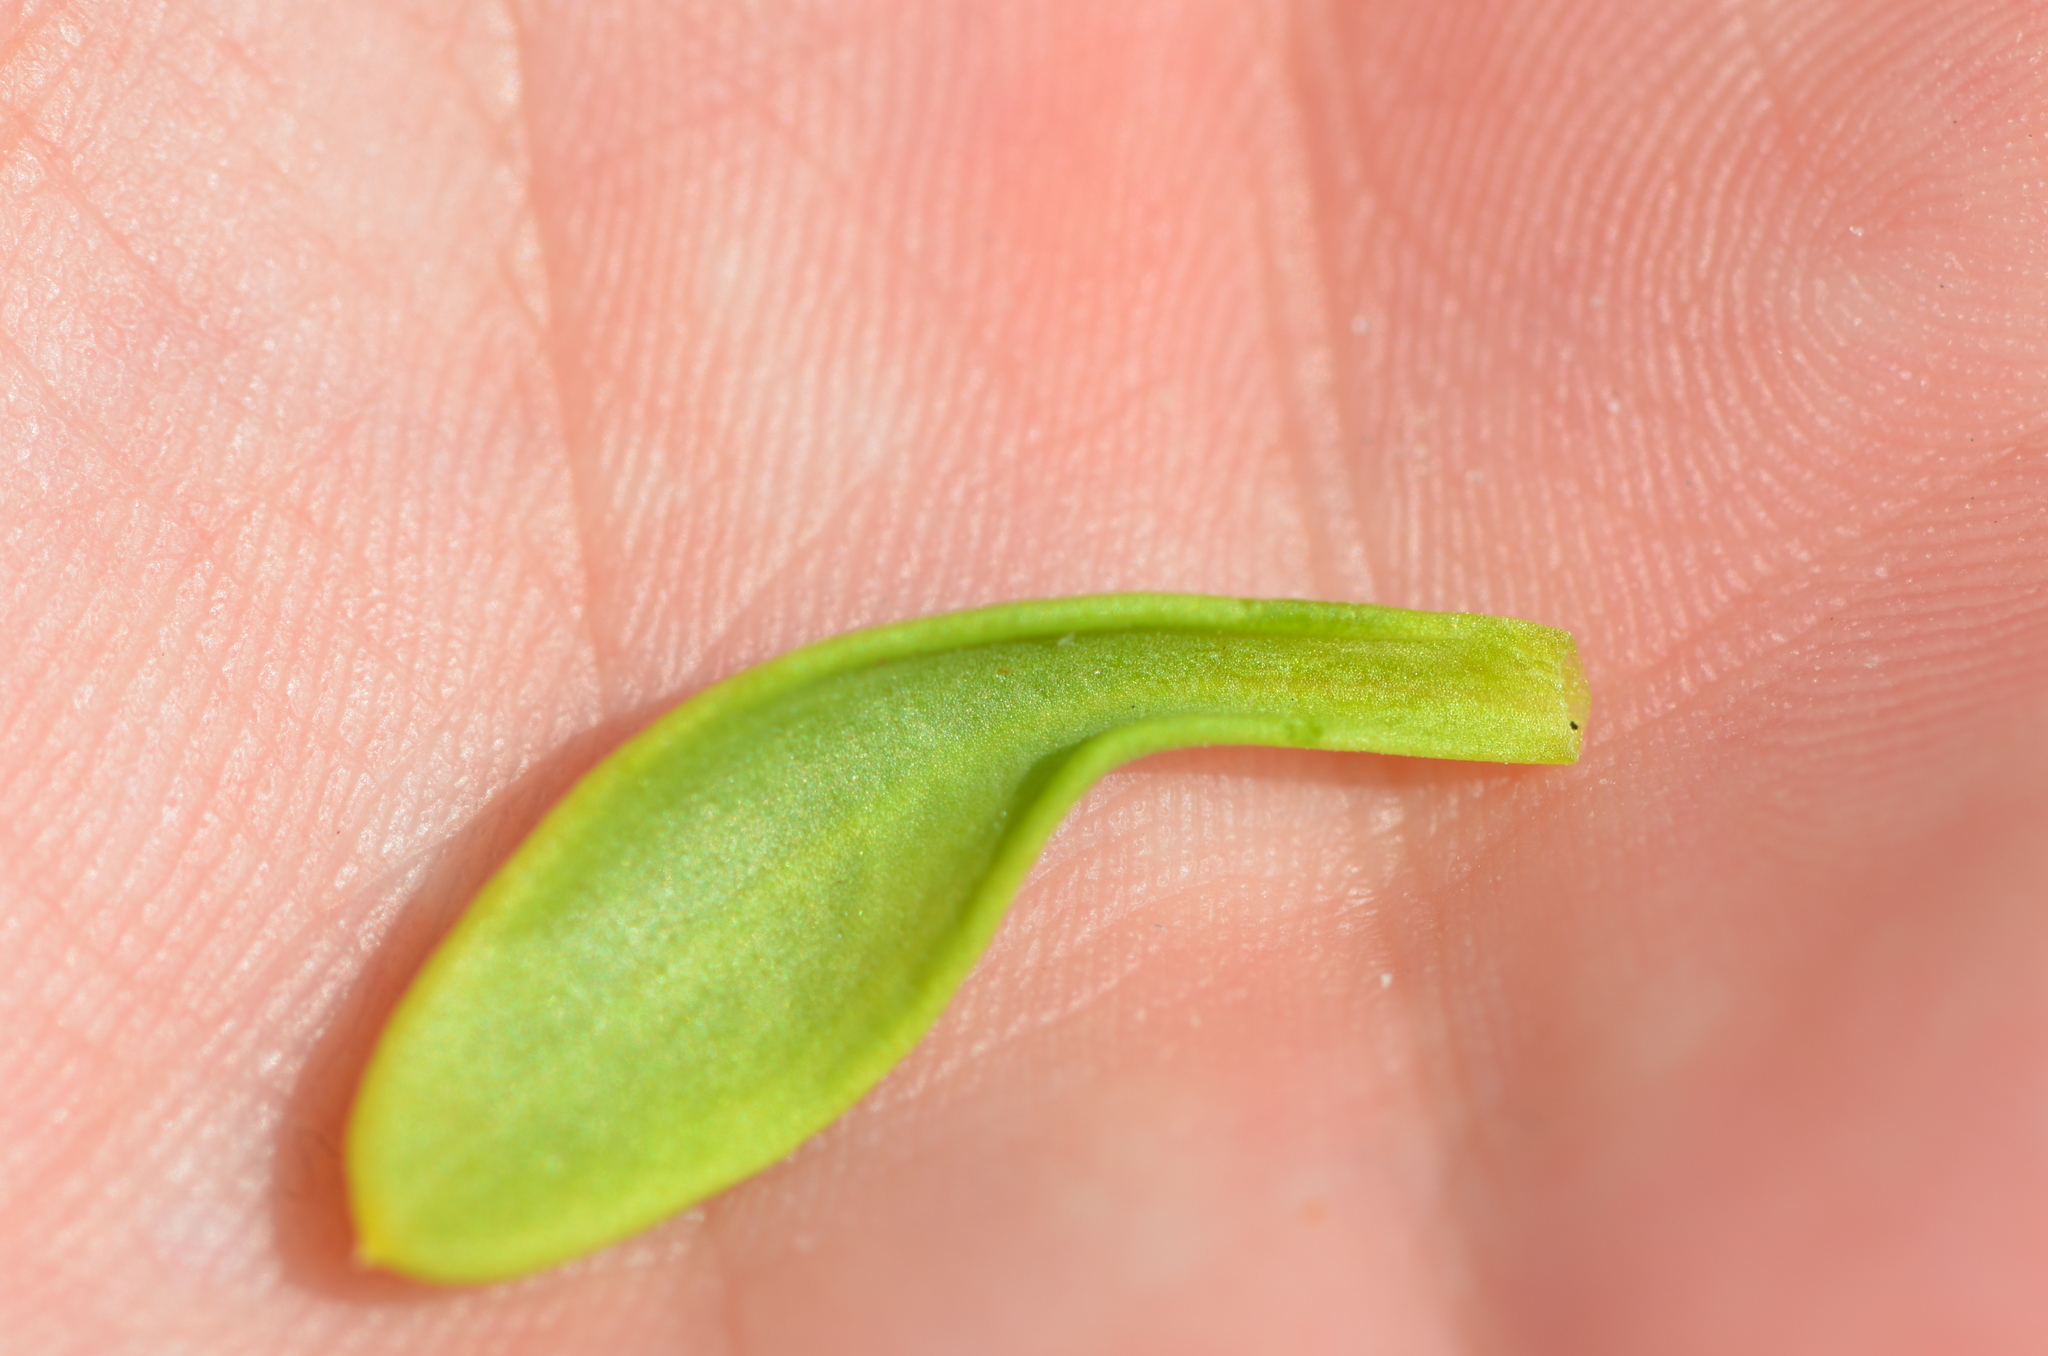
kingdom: Plantae
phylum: Tracheophyta
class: Magnoliopsida
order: Fabales
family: Polygalaceae
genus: Polygala
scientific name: Polygala nana
